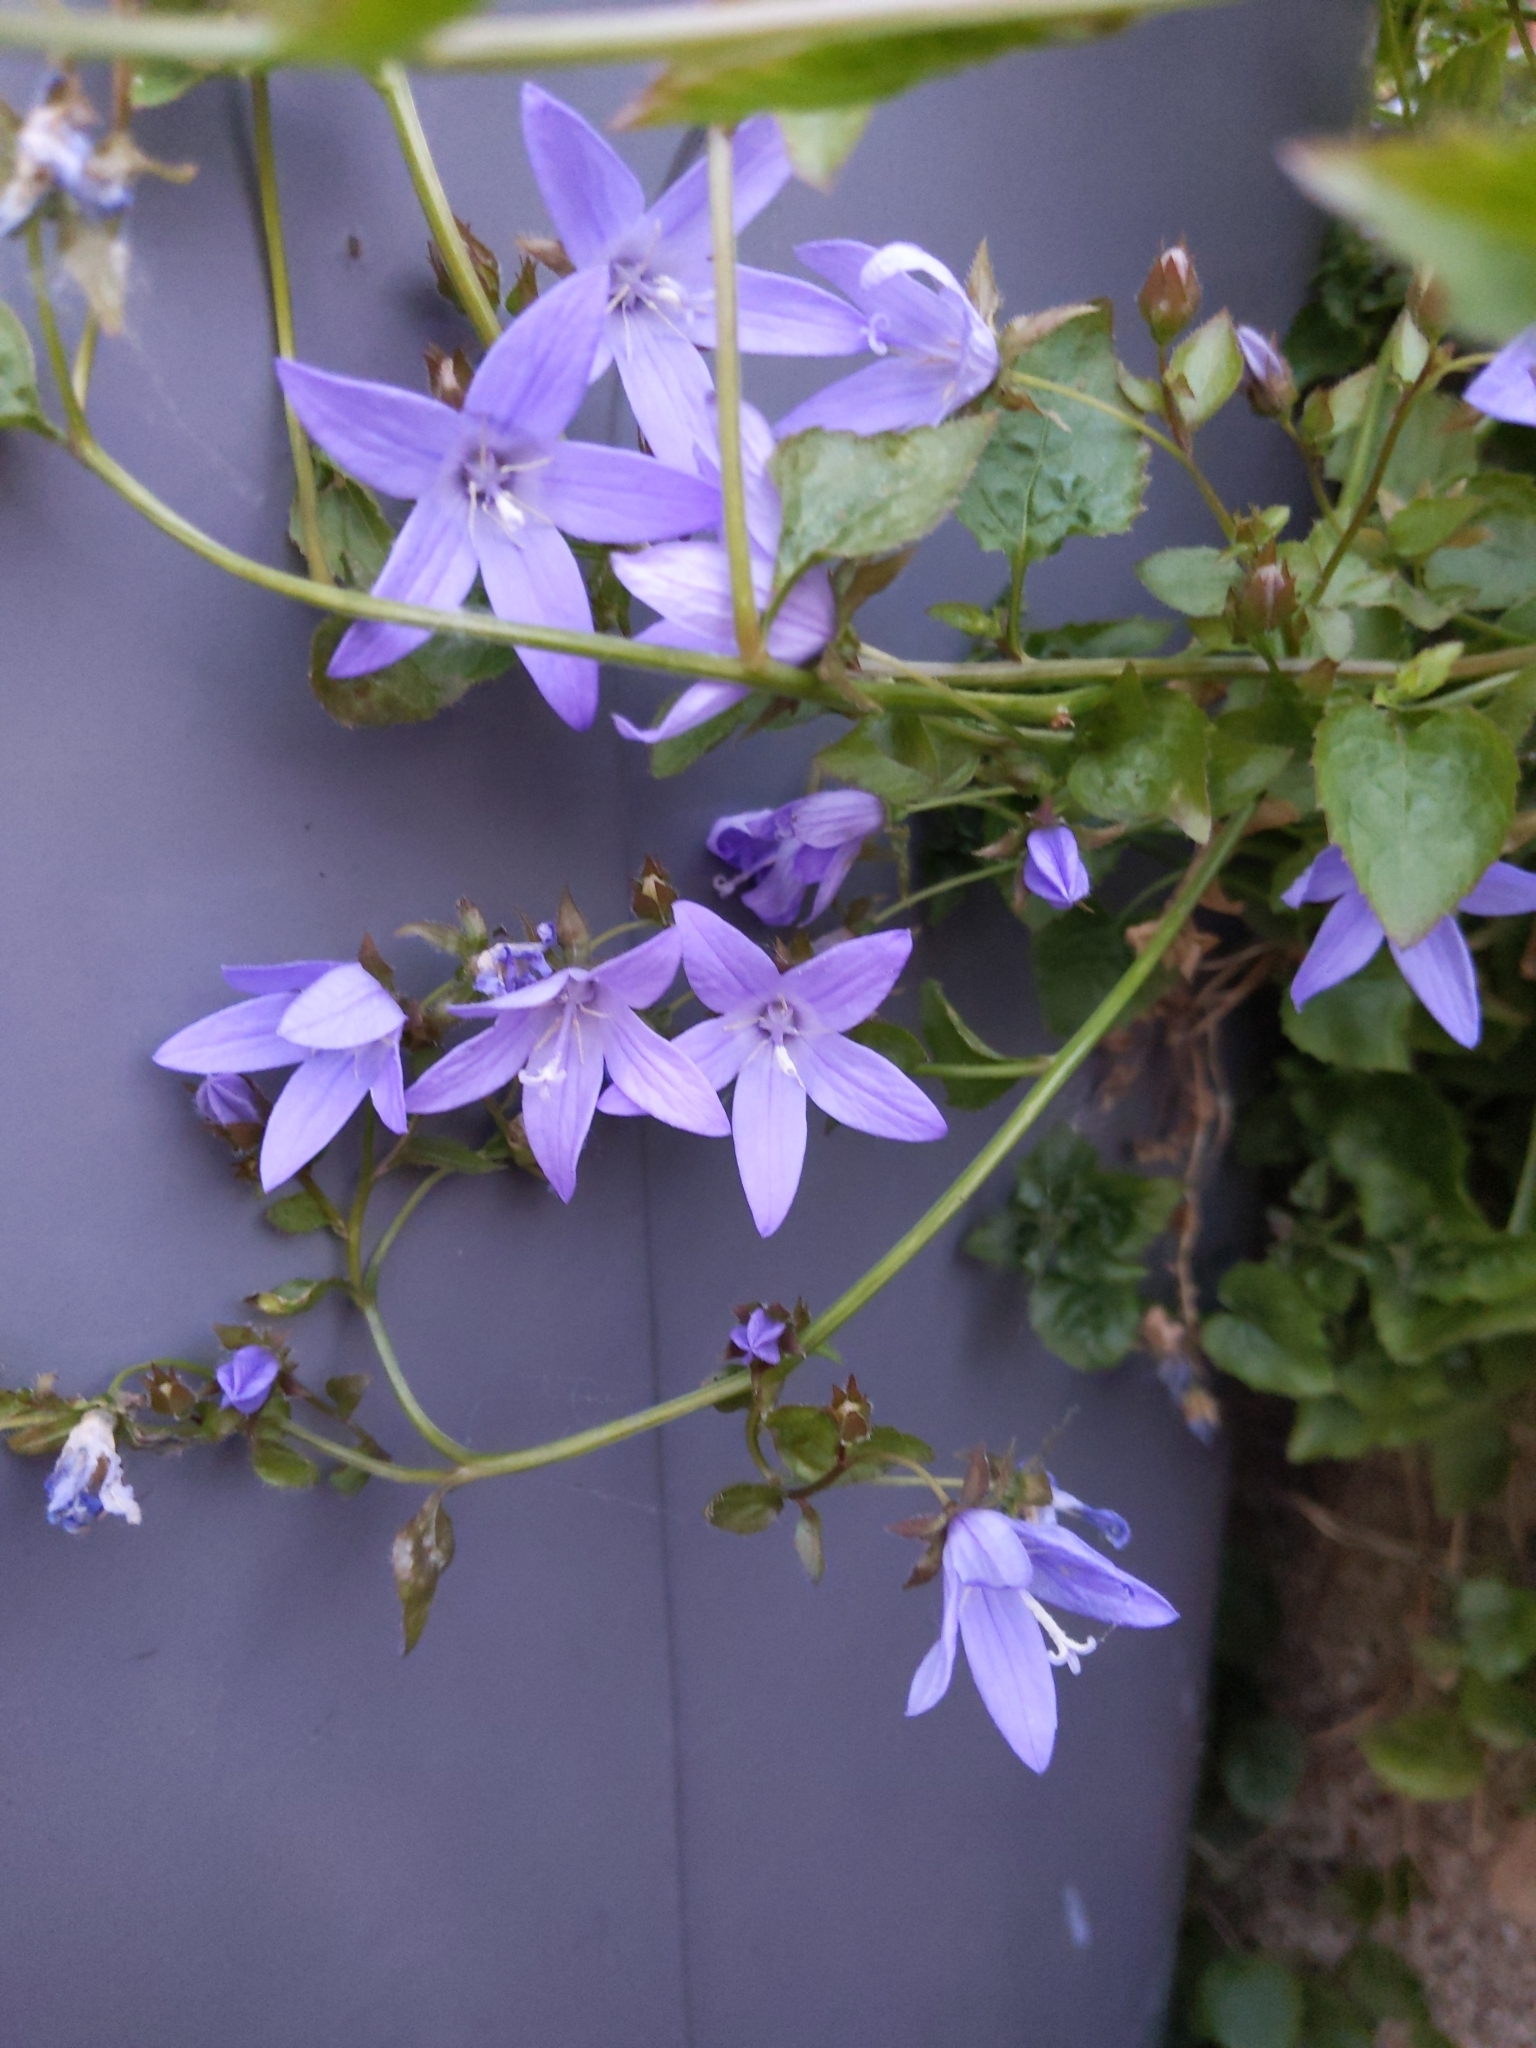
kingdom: Plantae
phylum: Tracheophyta
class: Magnoliopsida
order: Asterales
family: Campanulaceae
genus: Campanula
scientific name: Campanula poscharskyana
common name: Trailing bellflower
